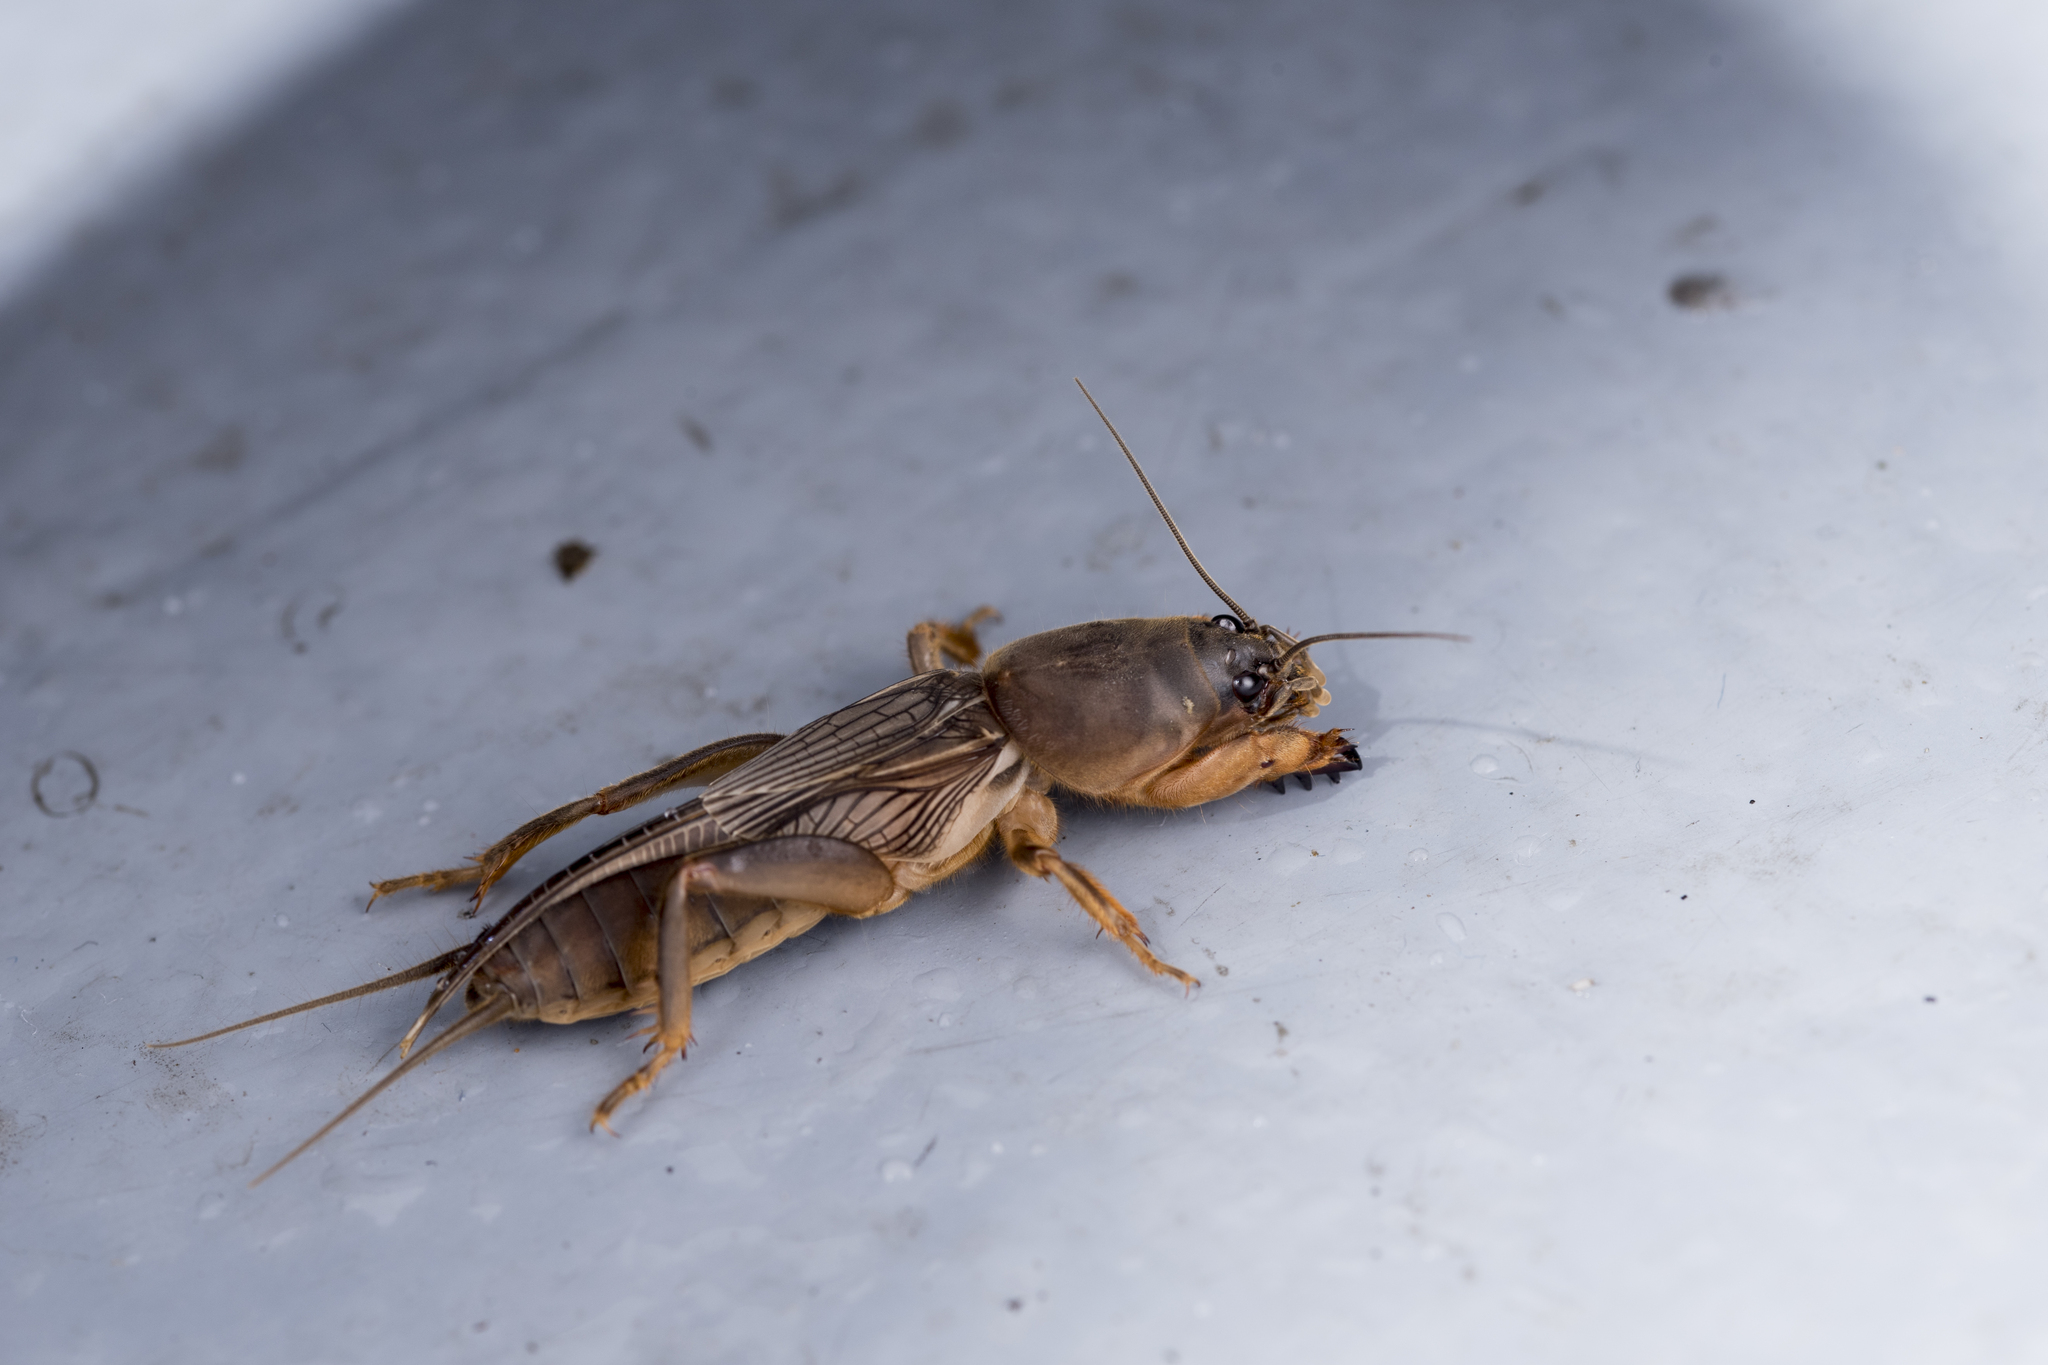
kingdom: Animalia
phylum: Arthropoda
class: Insecta
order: Orthoptera
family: Gryllotalpidae
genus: Gryllotalpa
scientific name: Gryllotalpa orientalis
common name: Grasshopper
